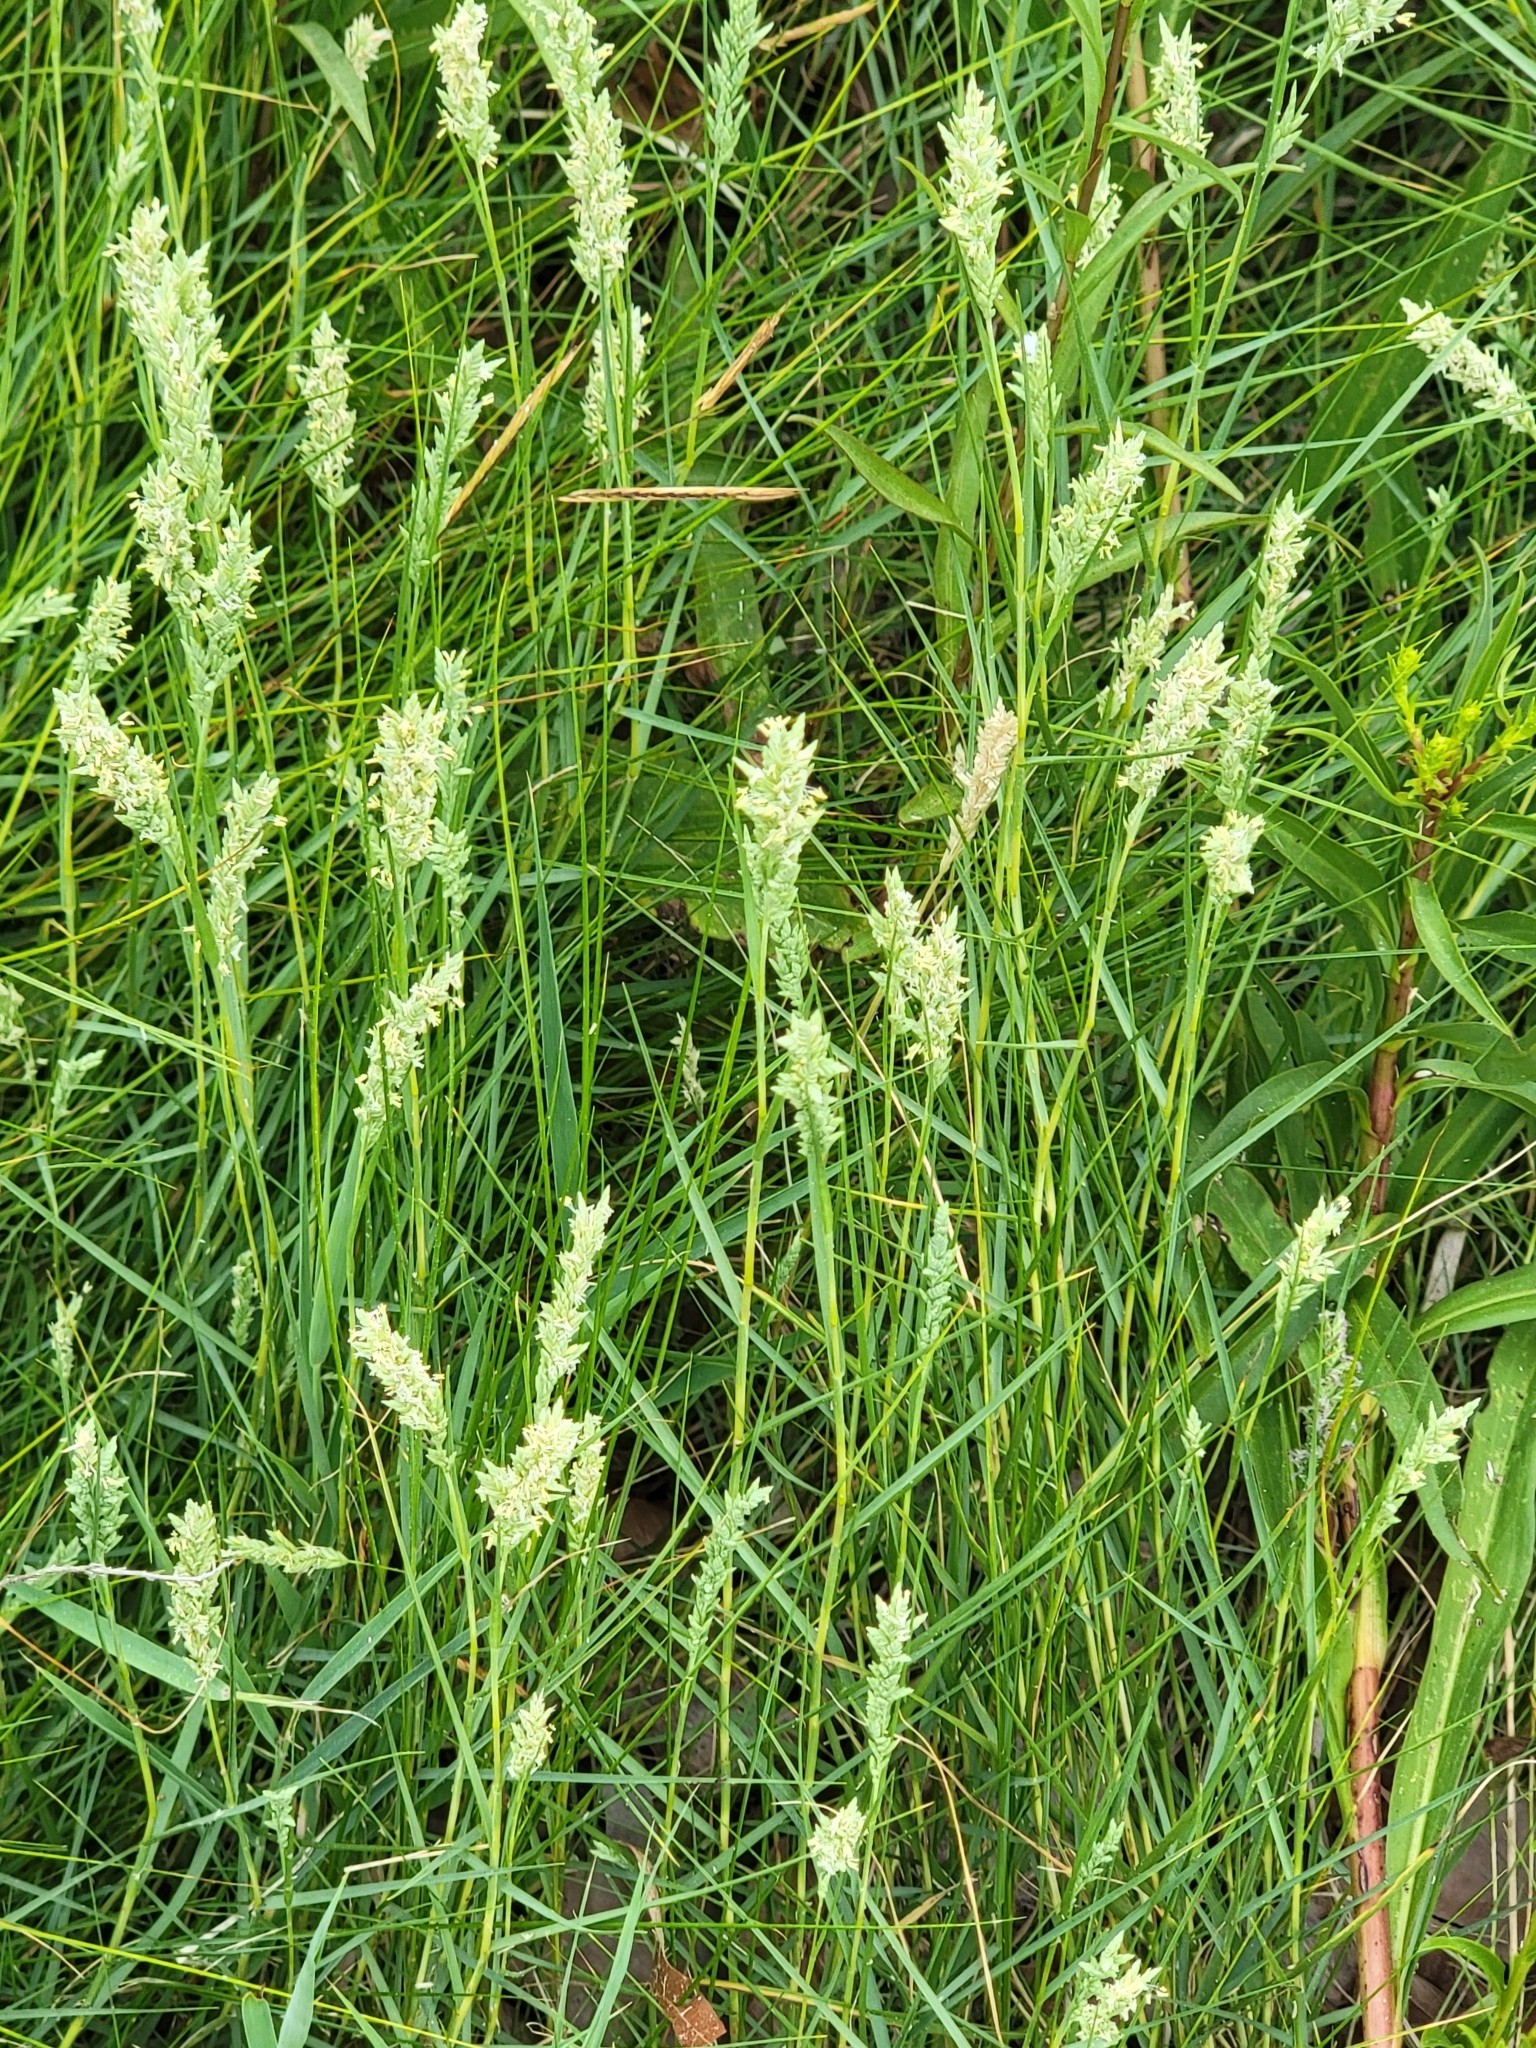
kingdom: Plantae
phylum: Tracheophyta
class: Liliopsida
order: Poales
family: Poaceae
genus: Distichlis
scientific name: Distichlis spicata
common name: Saltgrass
